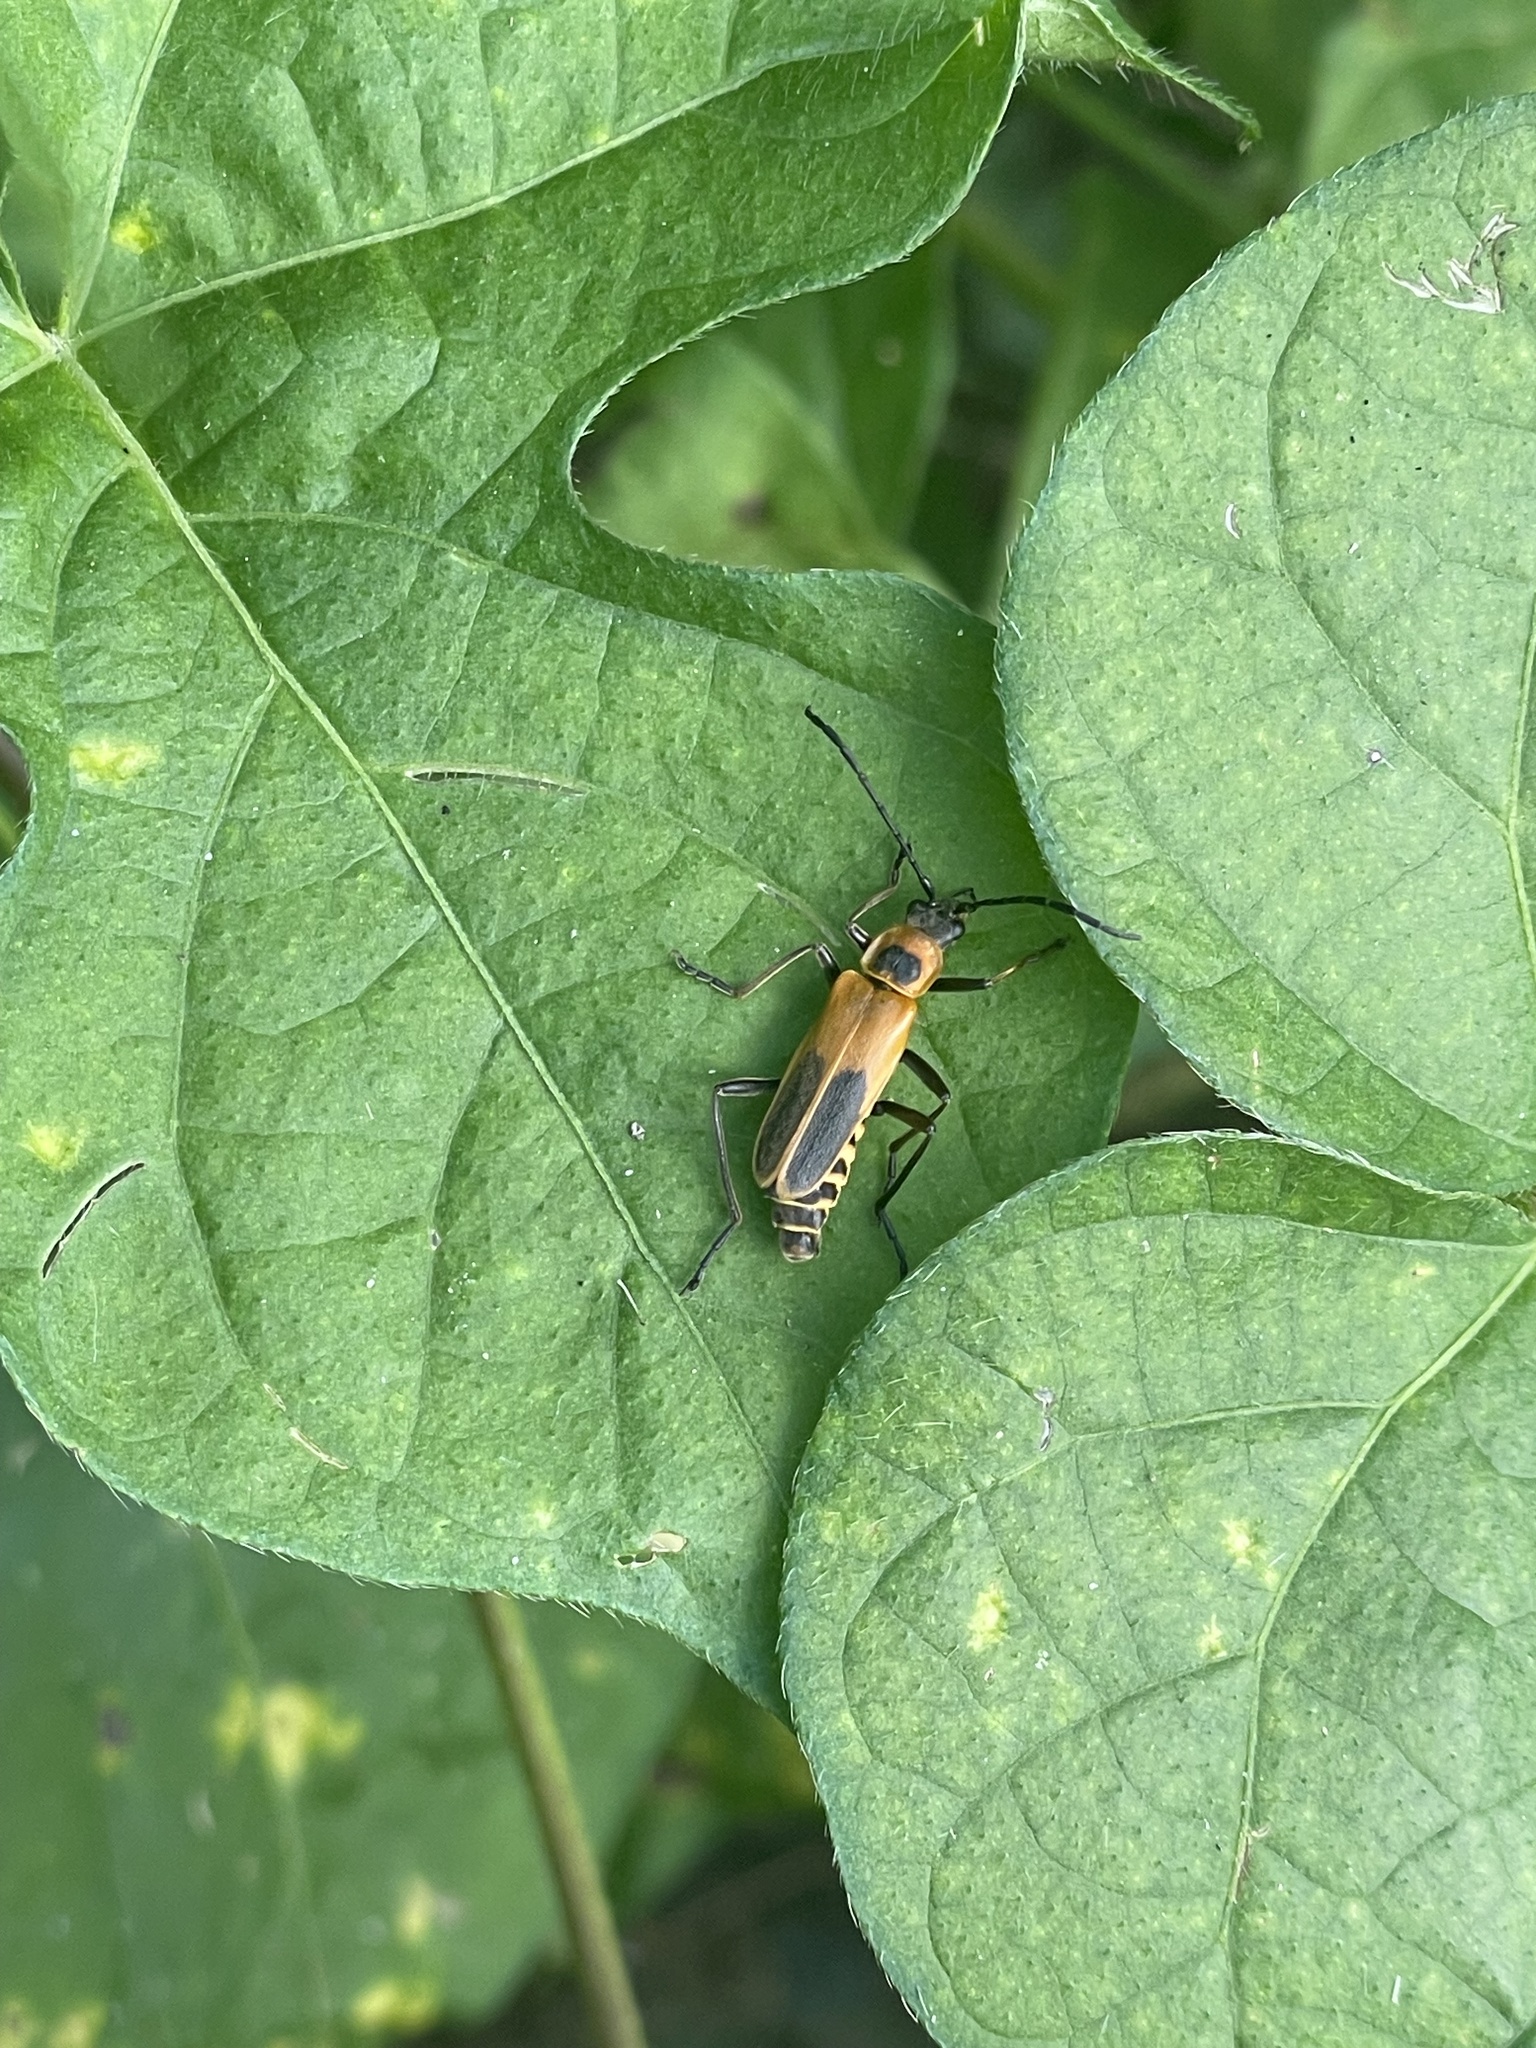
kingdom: Animalia
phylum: Arthropoda
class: Insecta
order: Coleoptera
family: Cantharidae
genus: Chauliognathus
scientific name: Chauliognathus pensylvanicus
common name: Goldenrod soldier beetle
